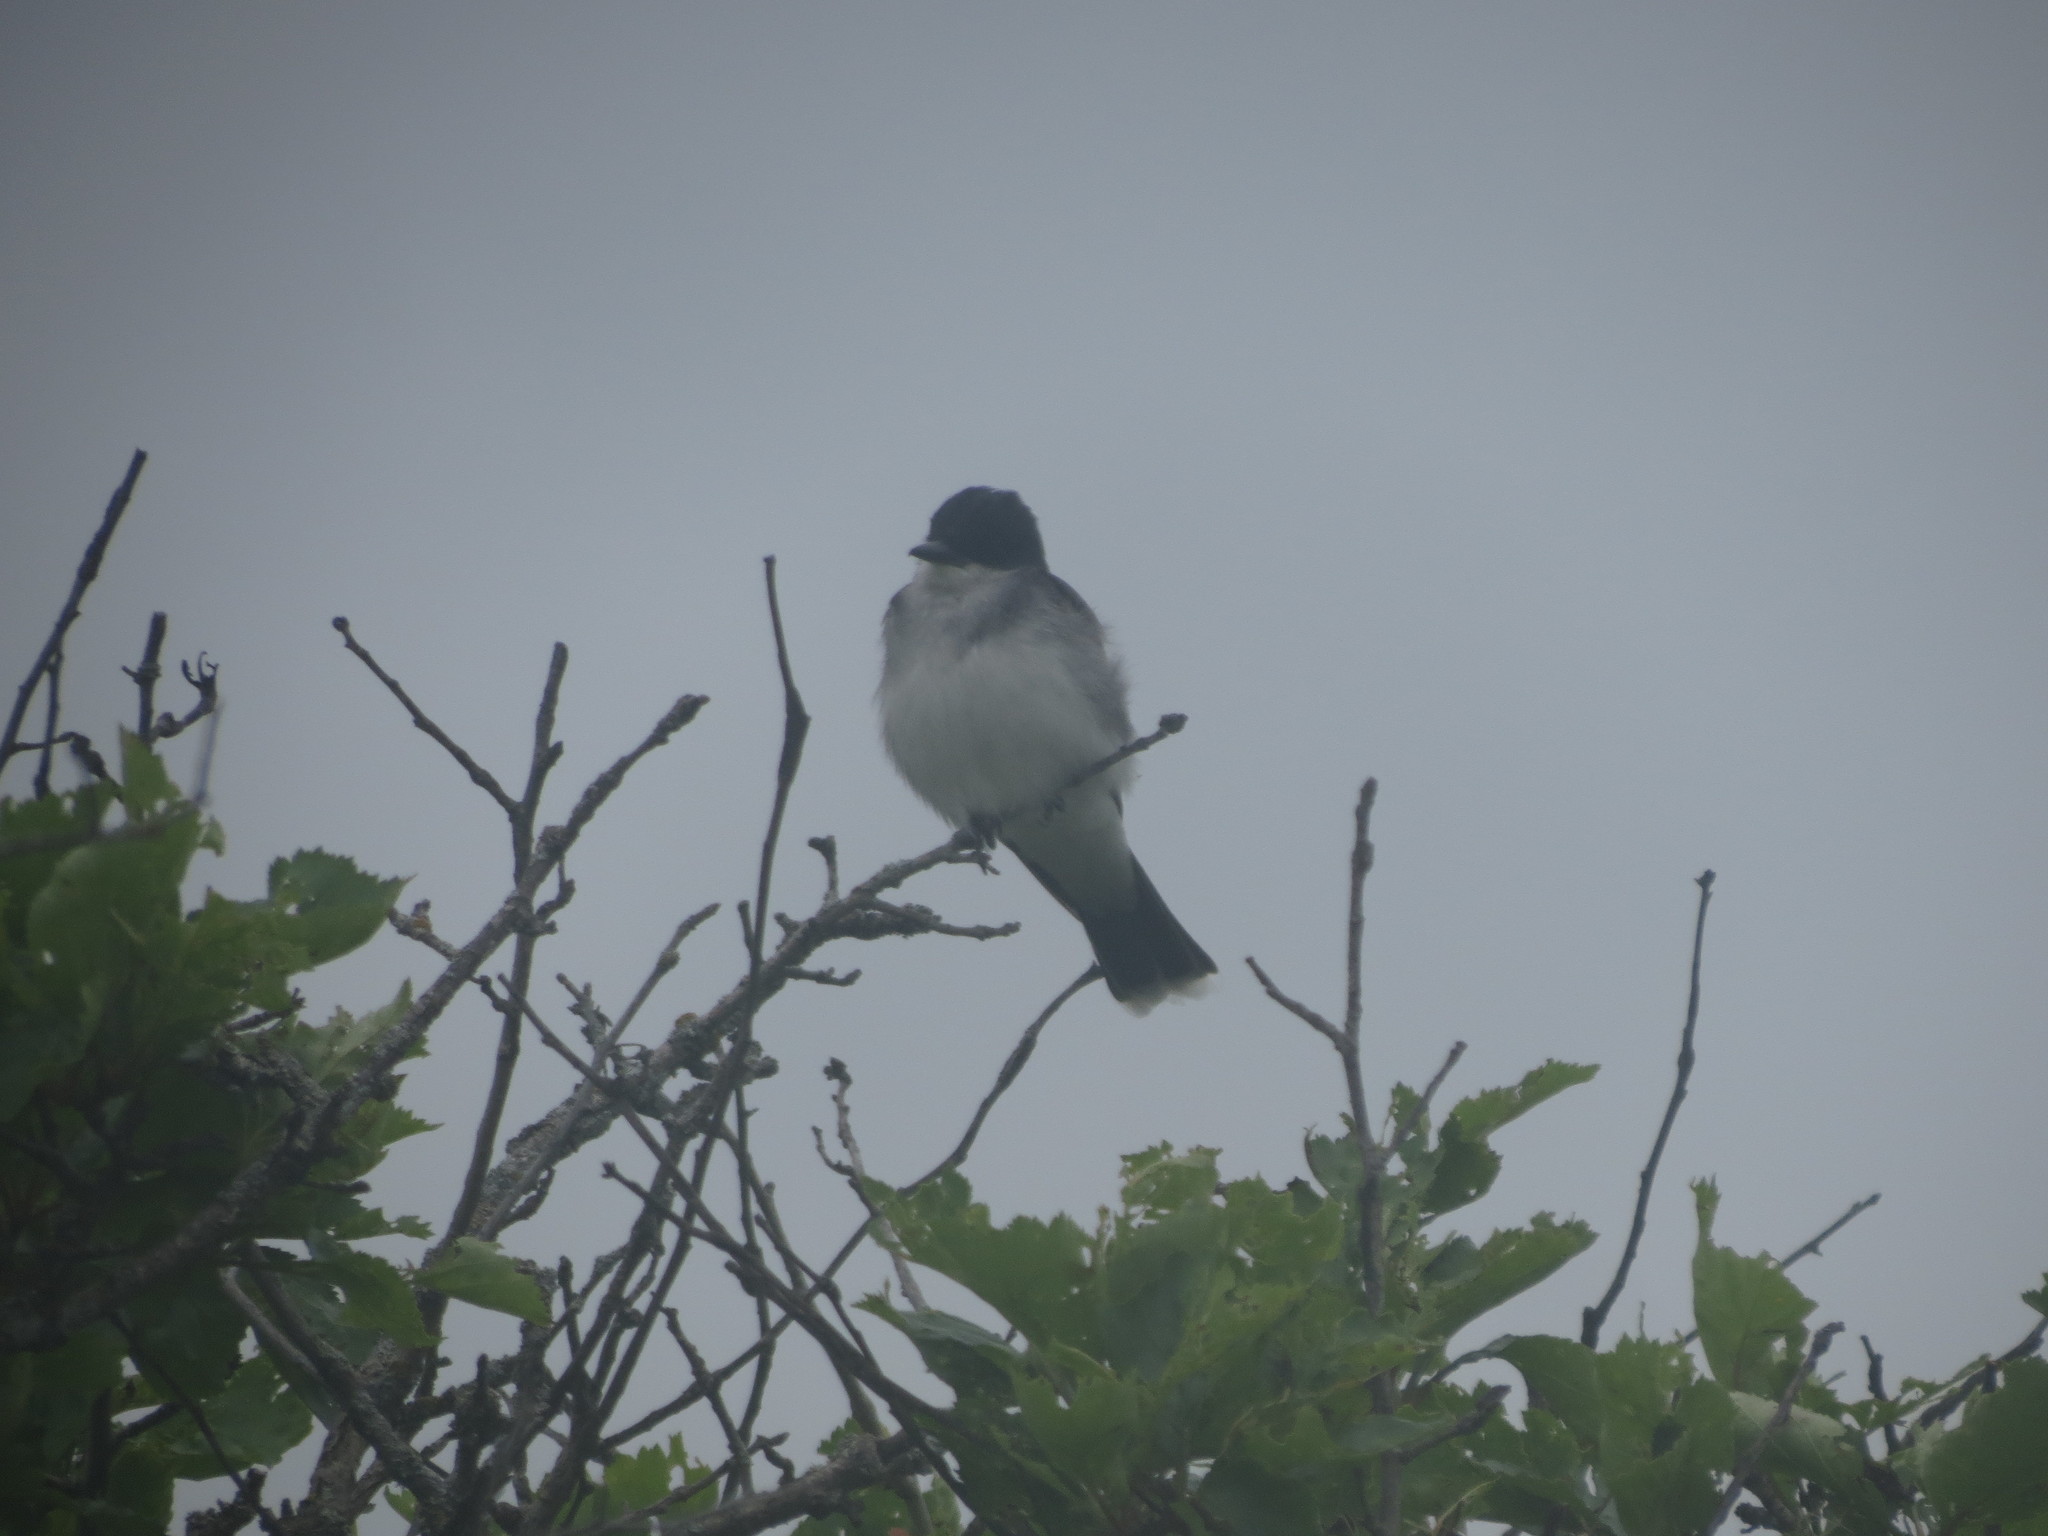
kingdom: Animalia
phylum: Chordata
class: Aves
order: Passeriformes
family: Tyrannidae
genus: Tyrannus
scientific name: Tyrannus tyrannus
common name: Eastern kingbird
